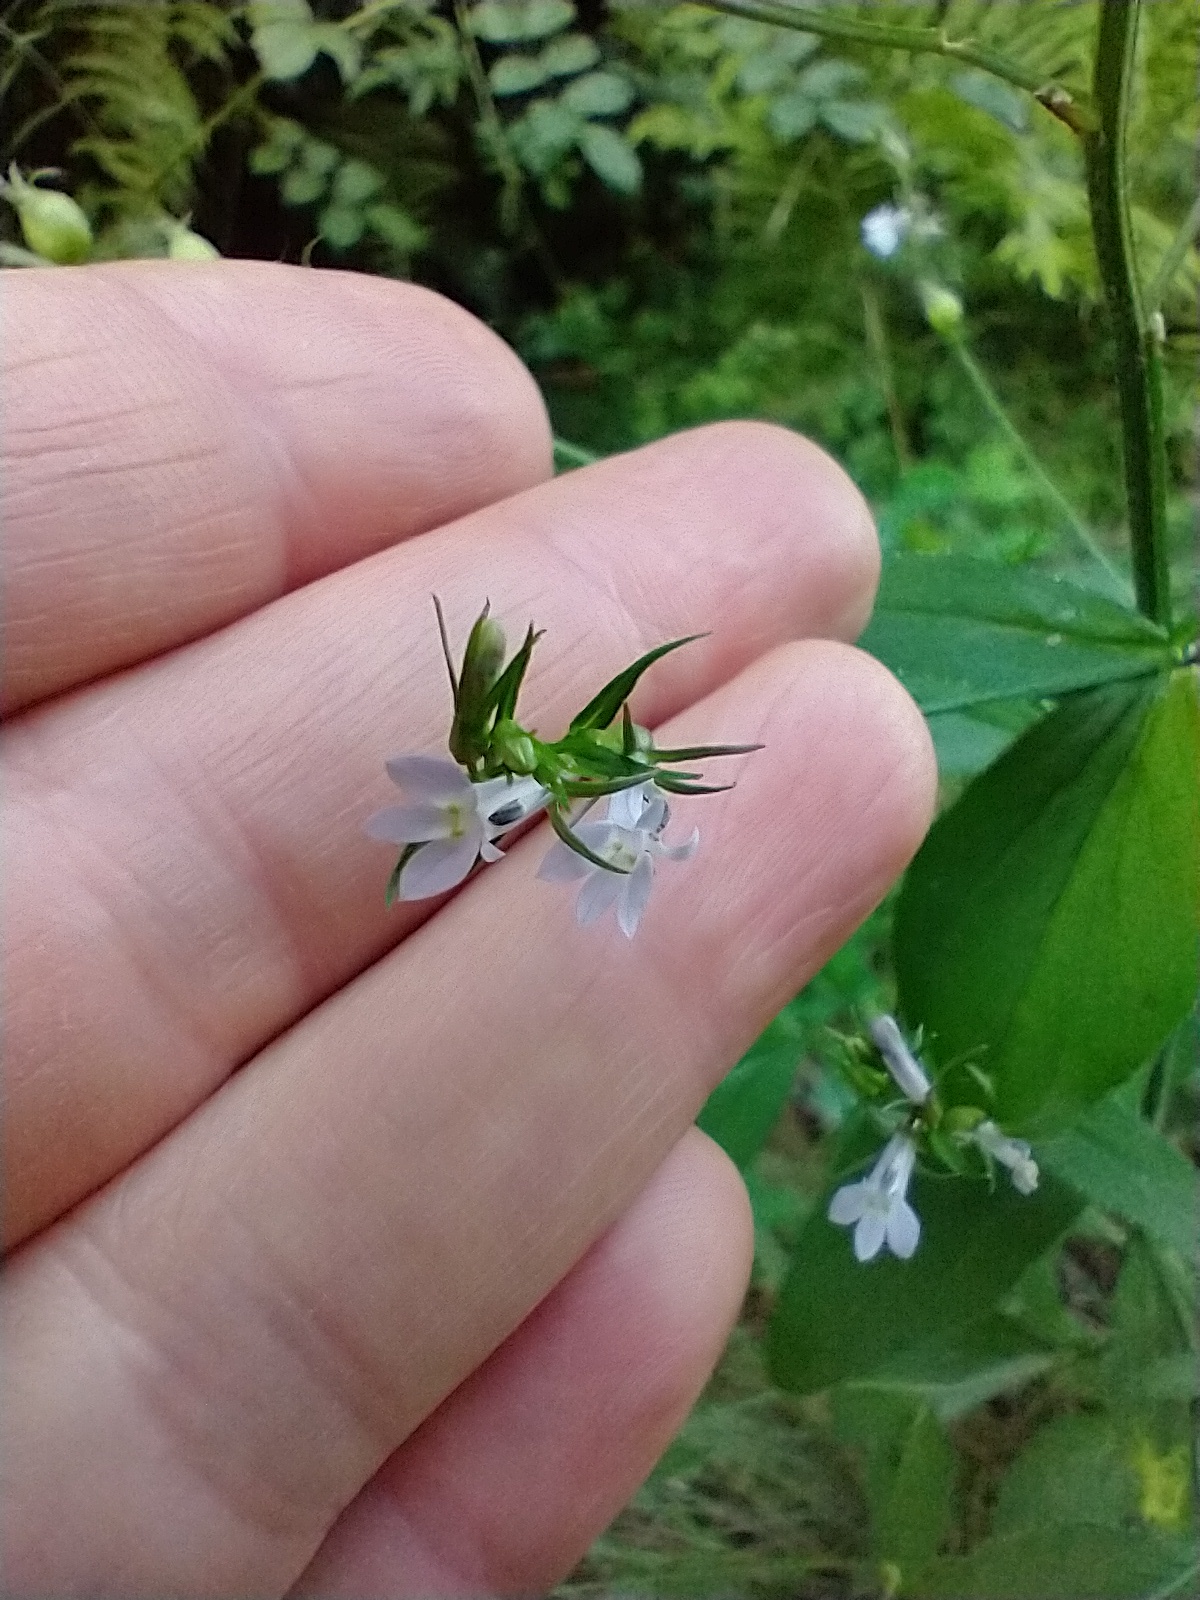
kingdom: Plantae
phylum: Tracheophyta
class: Magnoliopsida
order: Asterales
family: Campanulaceae
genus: Lobelia
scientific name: Lobelia inflata
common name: Indian tobacco
